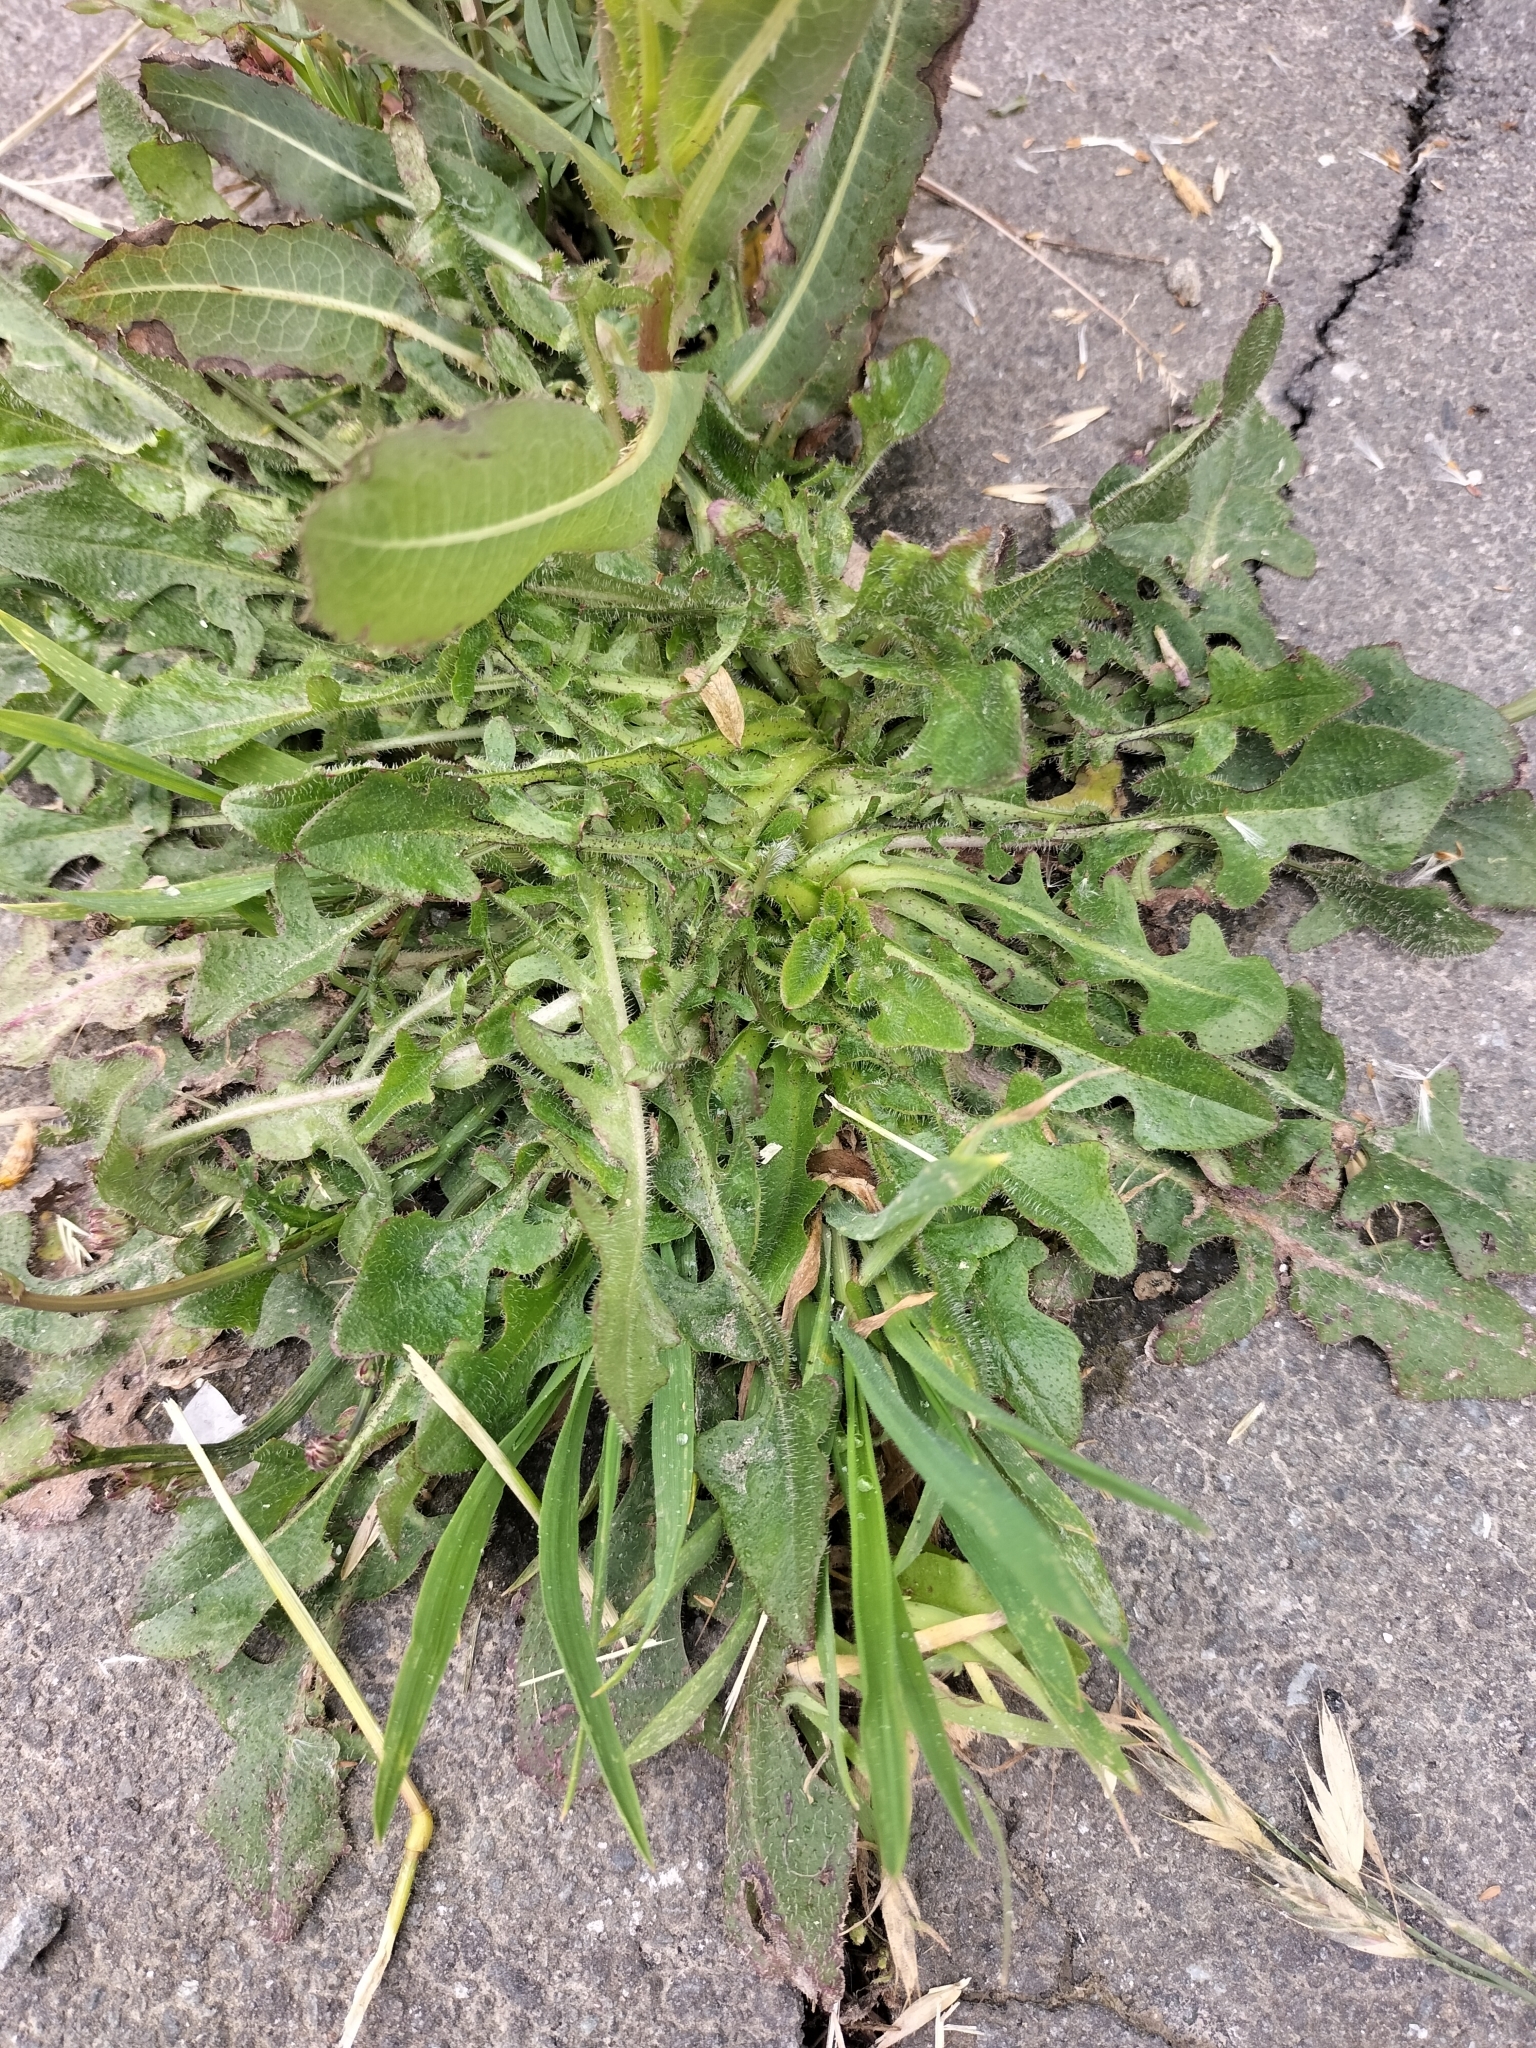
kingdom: Plantae
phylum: Tracheophyta
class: Magnoliopsida
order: Asterales
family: Asteraceae
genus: Hypochaeris
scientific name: Hypochaeris radicata
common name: Flatweed
